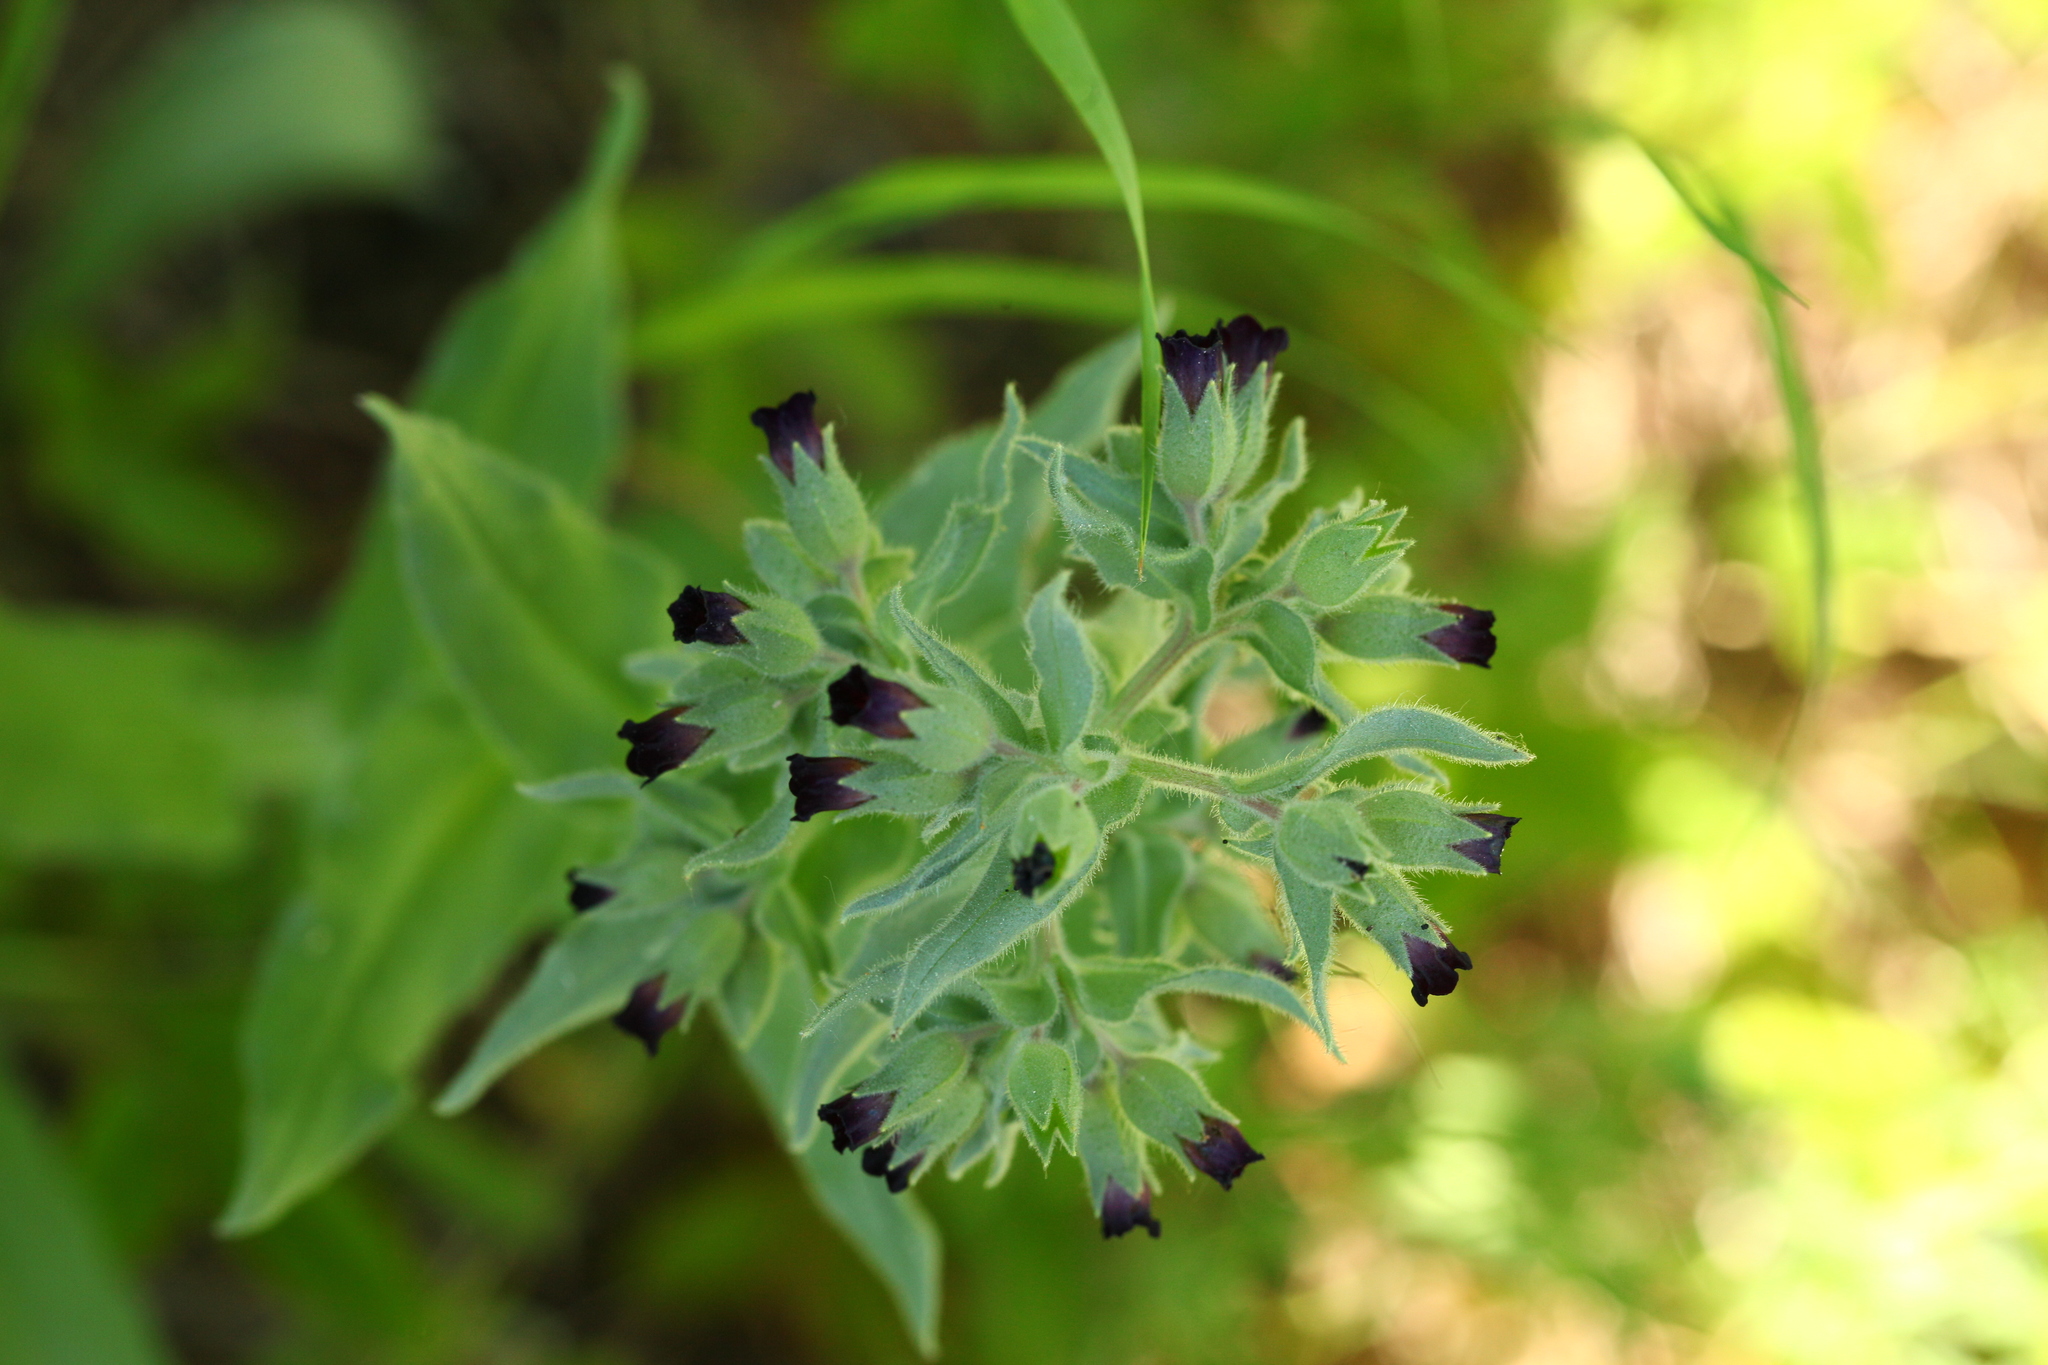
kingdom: Plantae
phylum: Tracheophyta
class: Magnoliopsida
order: Boraginales
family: Boraginaceae
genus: Nonea
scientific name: Nonea pulla
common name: Brown nonea
